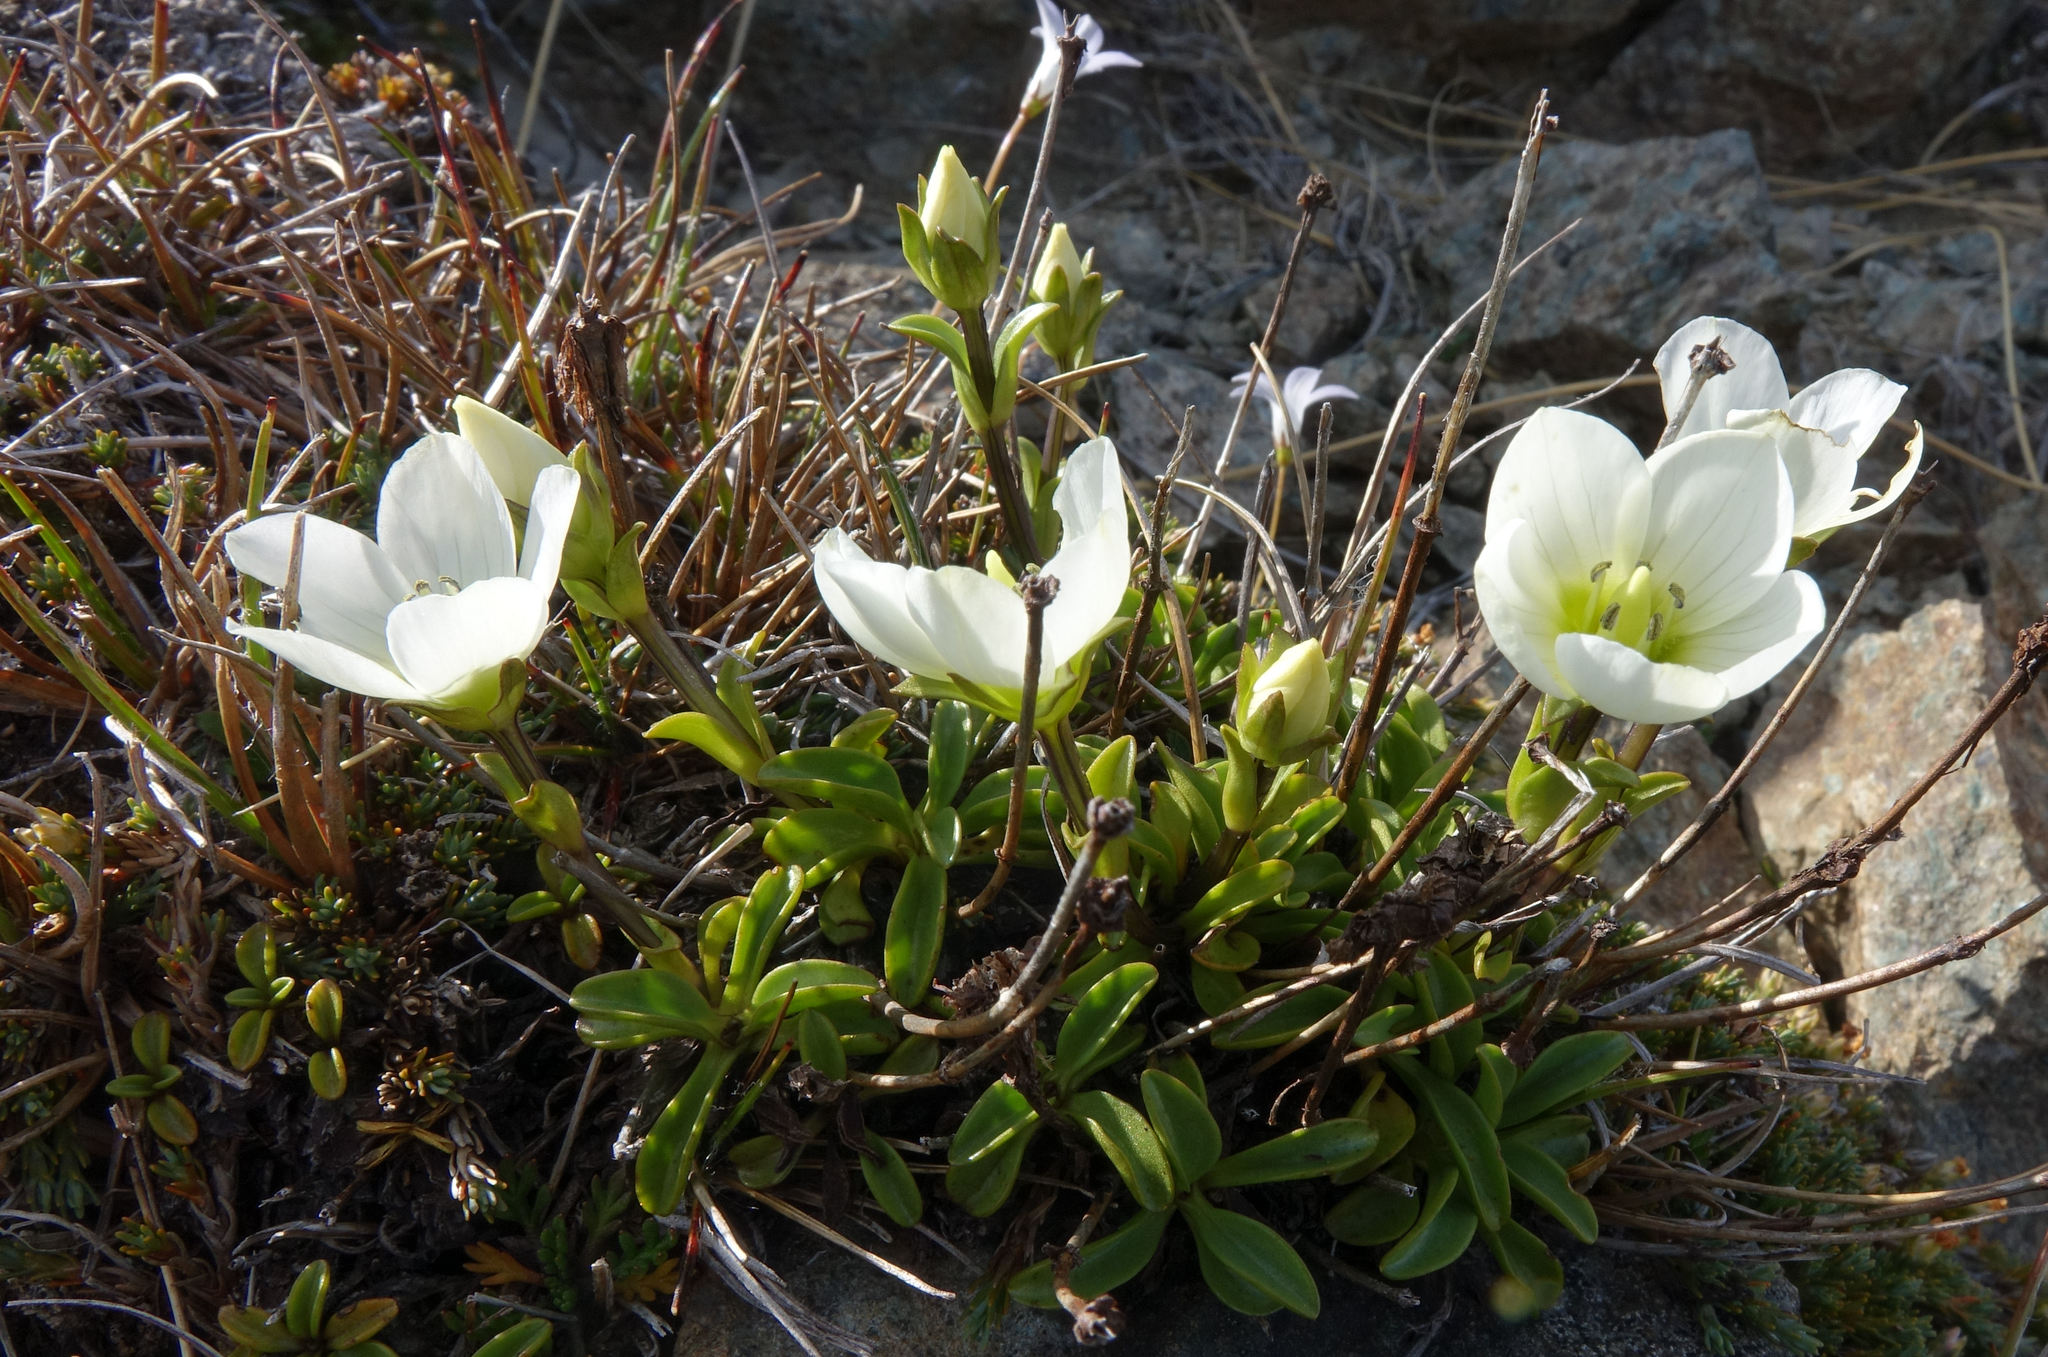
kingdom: Plantae
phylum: Tracheophyta
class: Magnoliopsida
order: Gentianales
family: Gentianaceae
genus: Gentianella
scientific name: Gentianella bellidifolia
